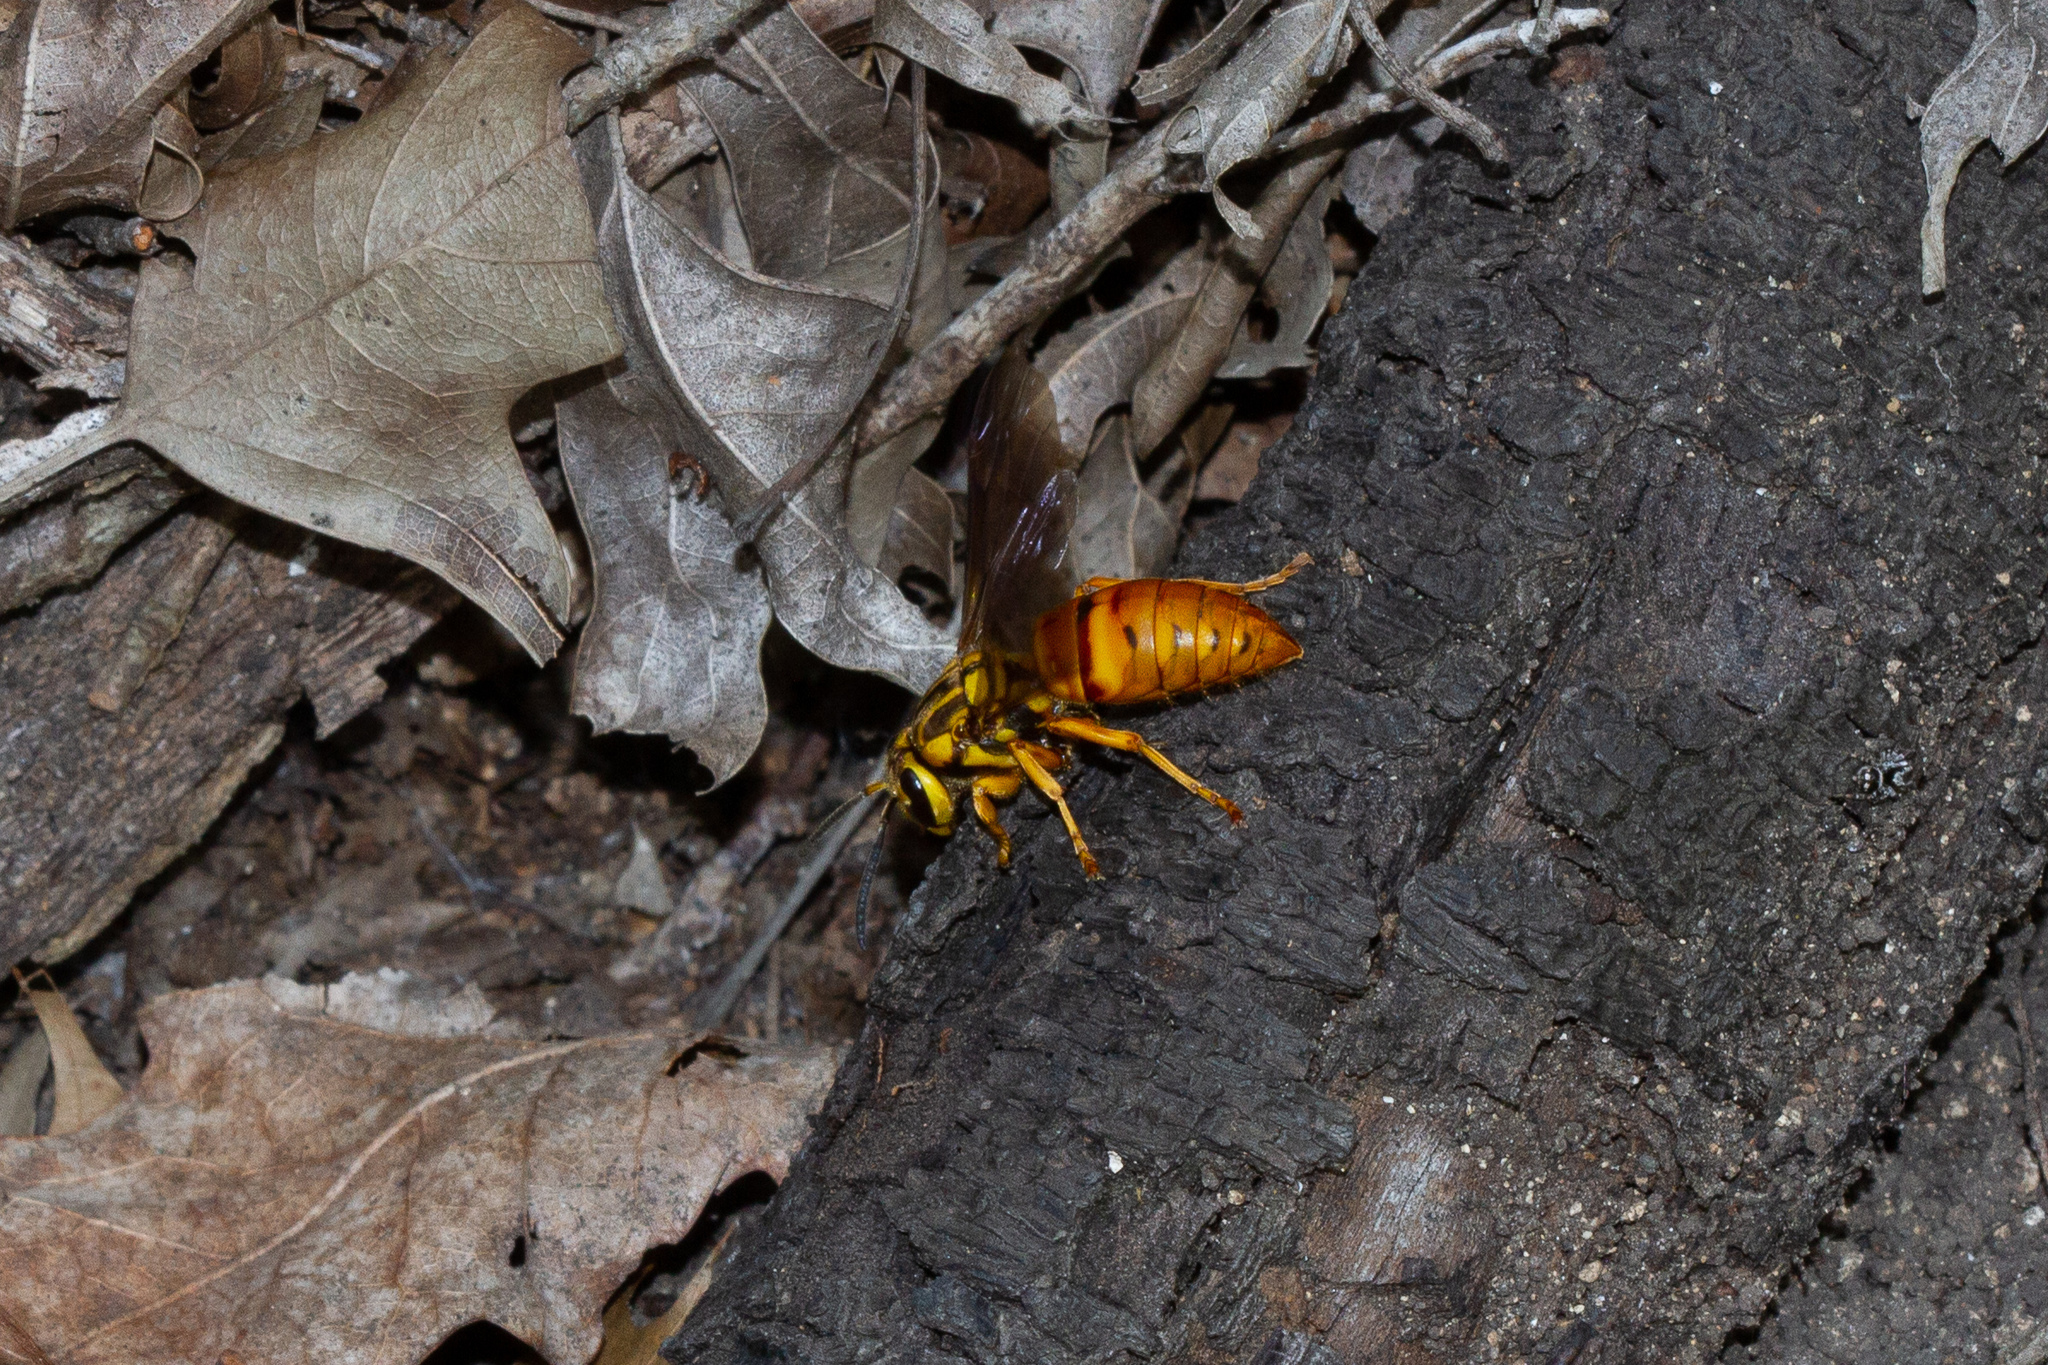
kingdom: Animalia
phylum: Arthropoda
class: Insecta
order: Hymenoptera
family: Vespidae
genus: Vespula
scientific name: Vespula squamosa
